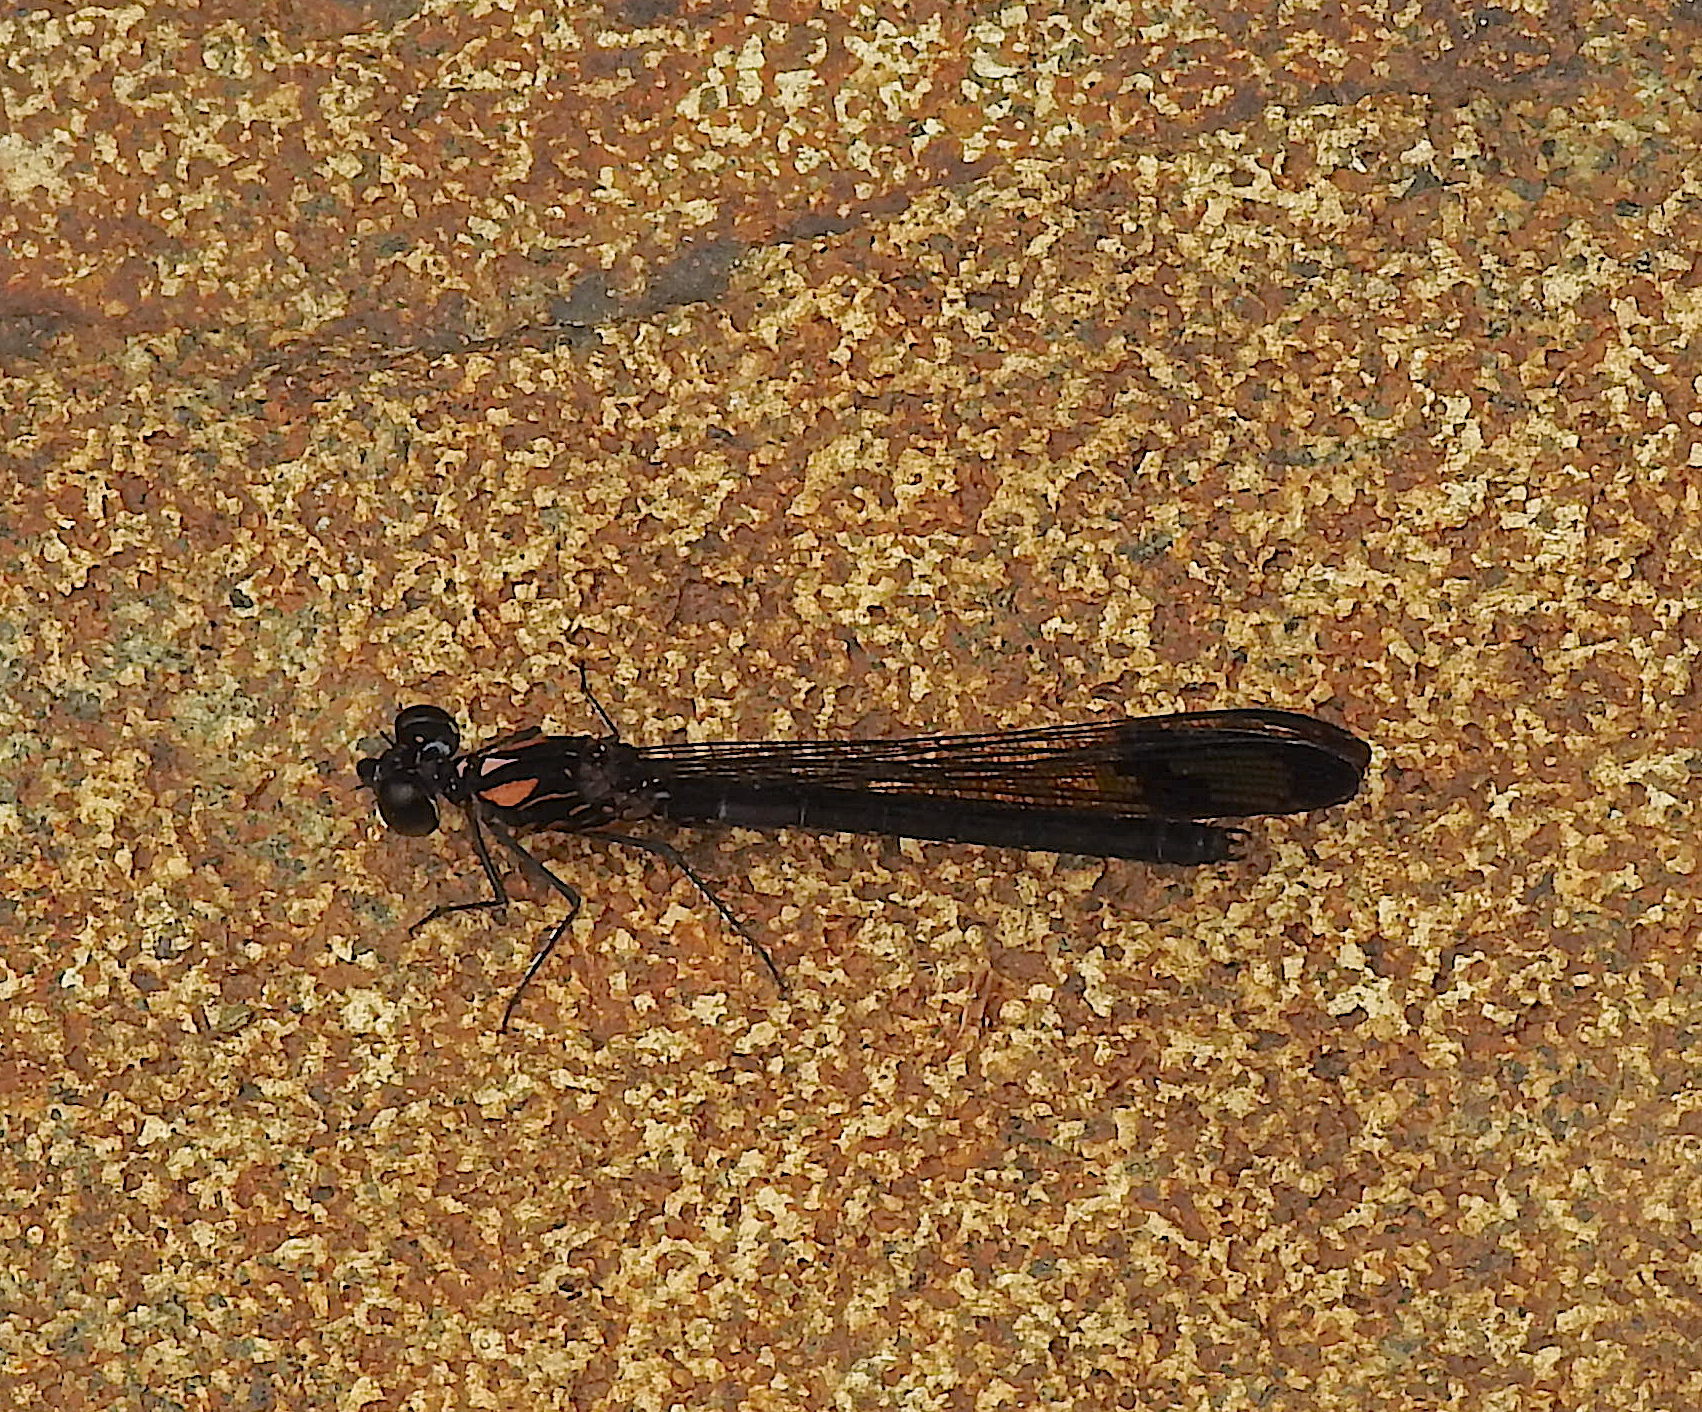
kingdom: Animalia
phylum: Arthropoda
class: Insecta
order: Odonata
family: Chlorocyphidae
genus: Heliocypha
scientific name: Heliocypha bisignata
